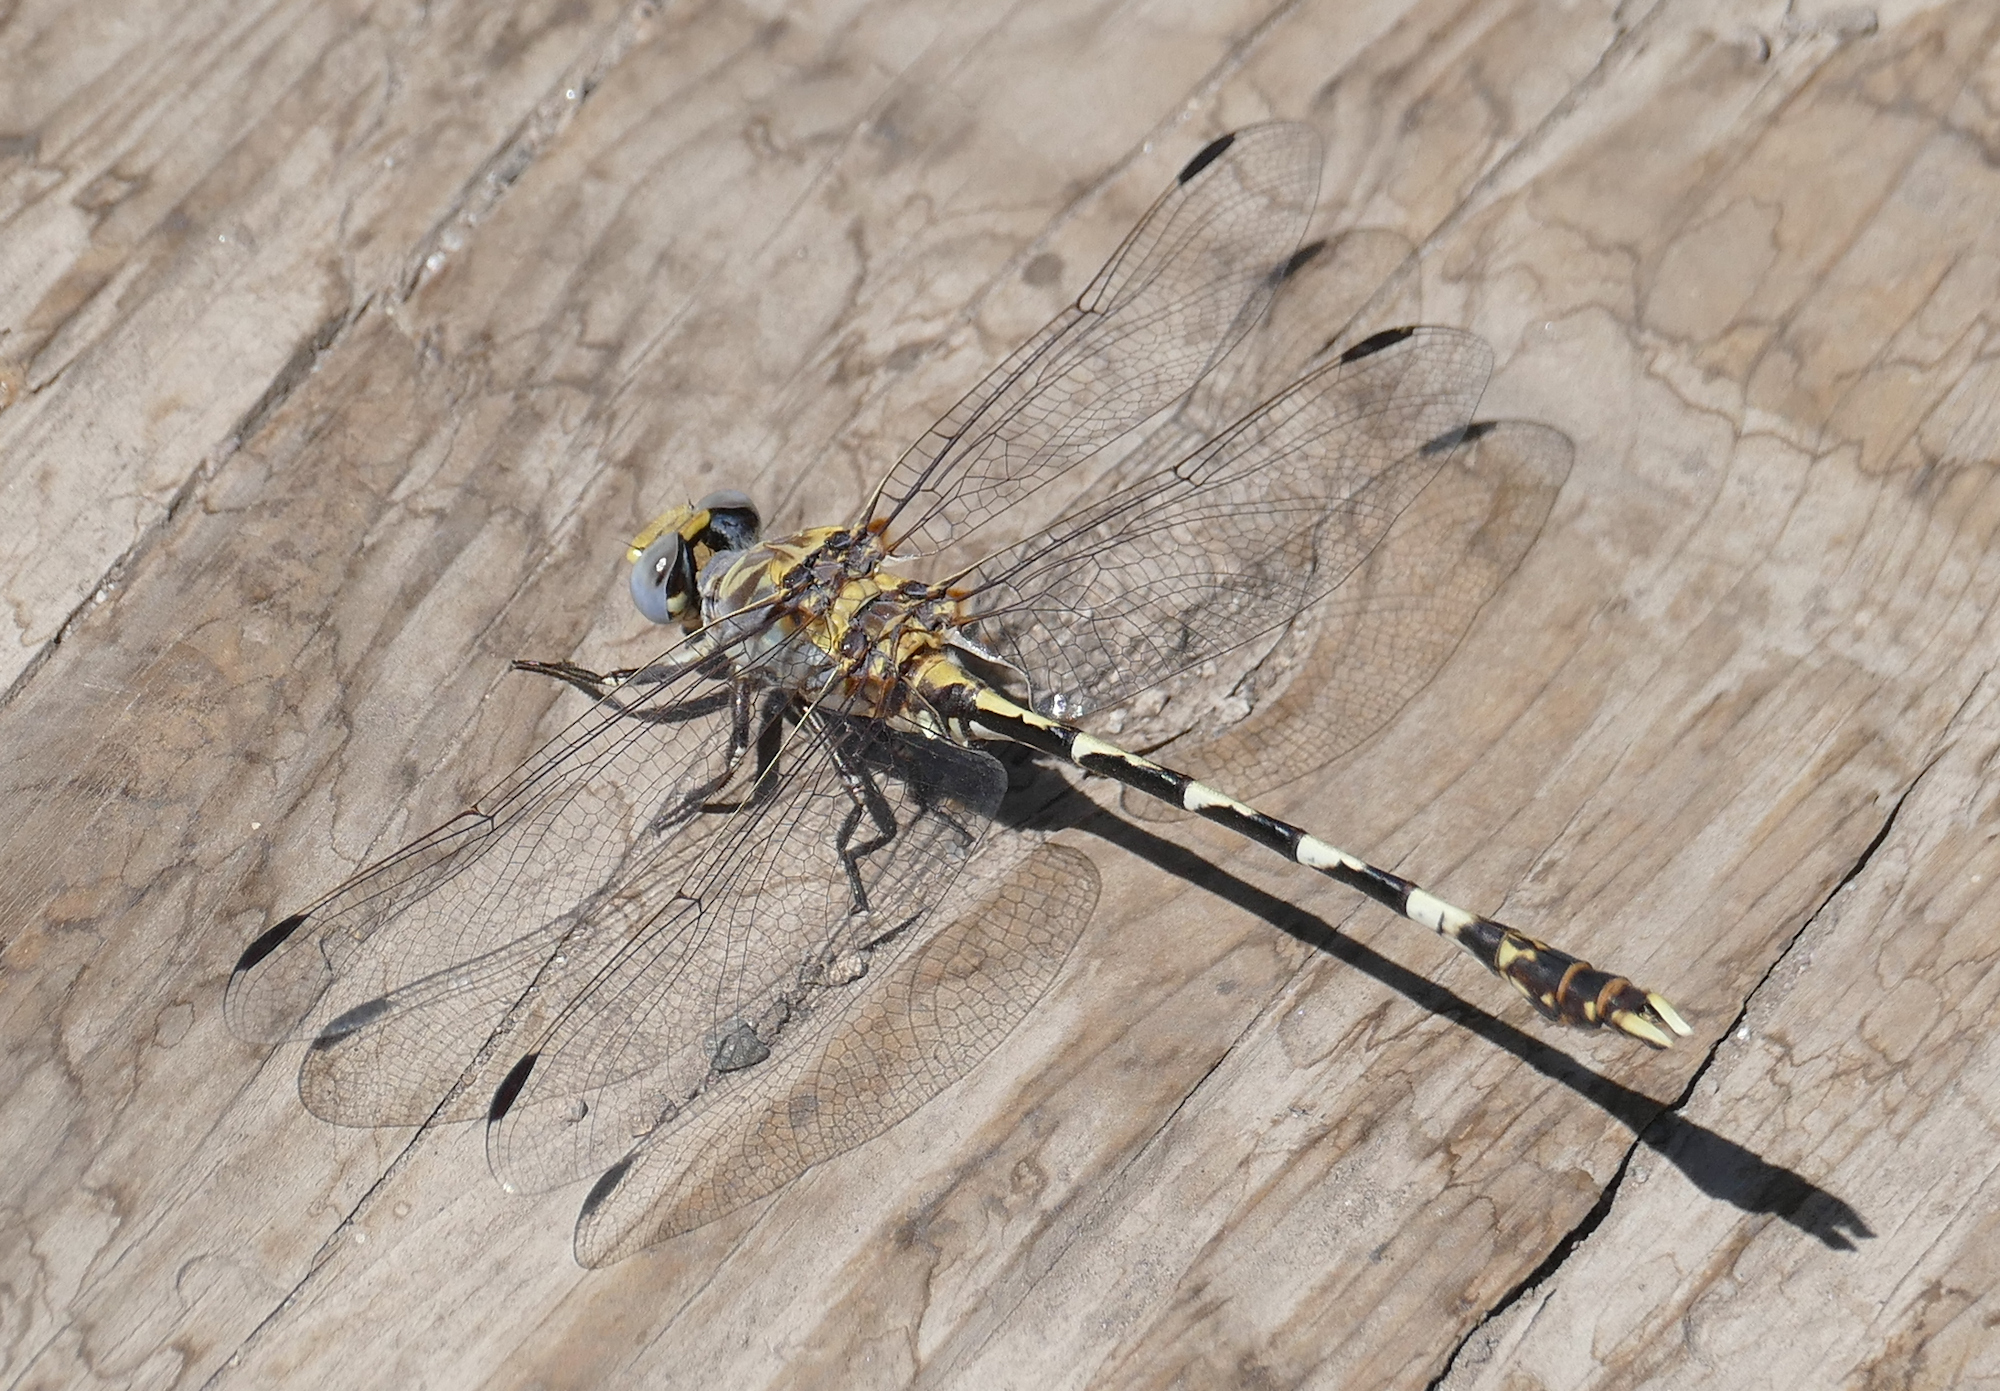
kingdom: Animalia
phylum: Arthropoda
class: Insecta
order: Odonata
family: Gomphidae
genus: Progomphus
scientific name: Progomphus borealis
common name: Gray sanddragon
